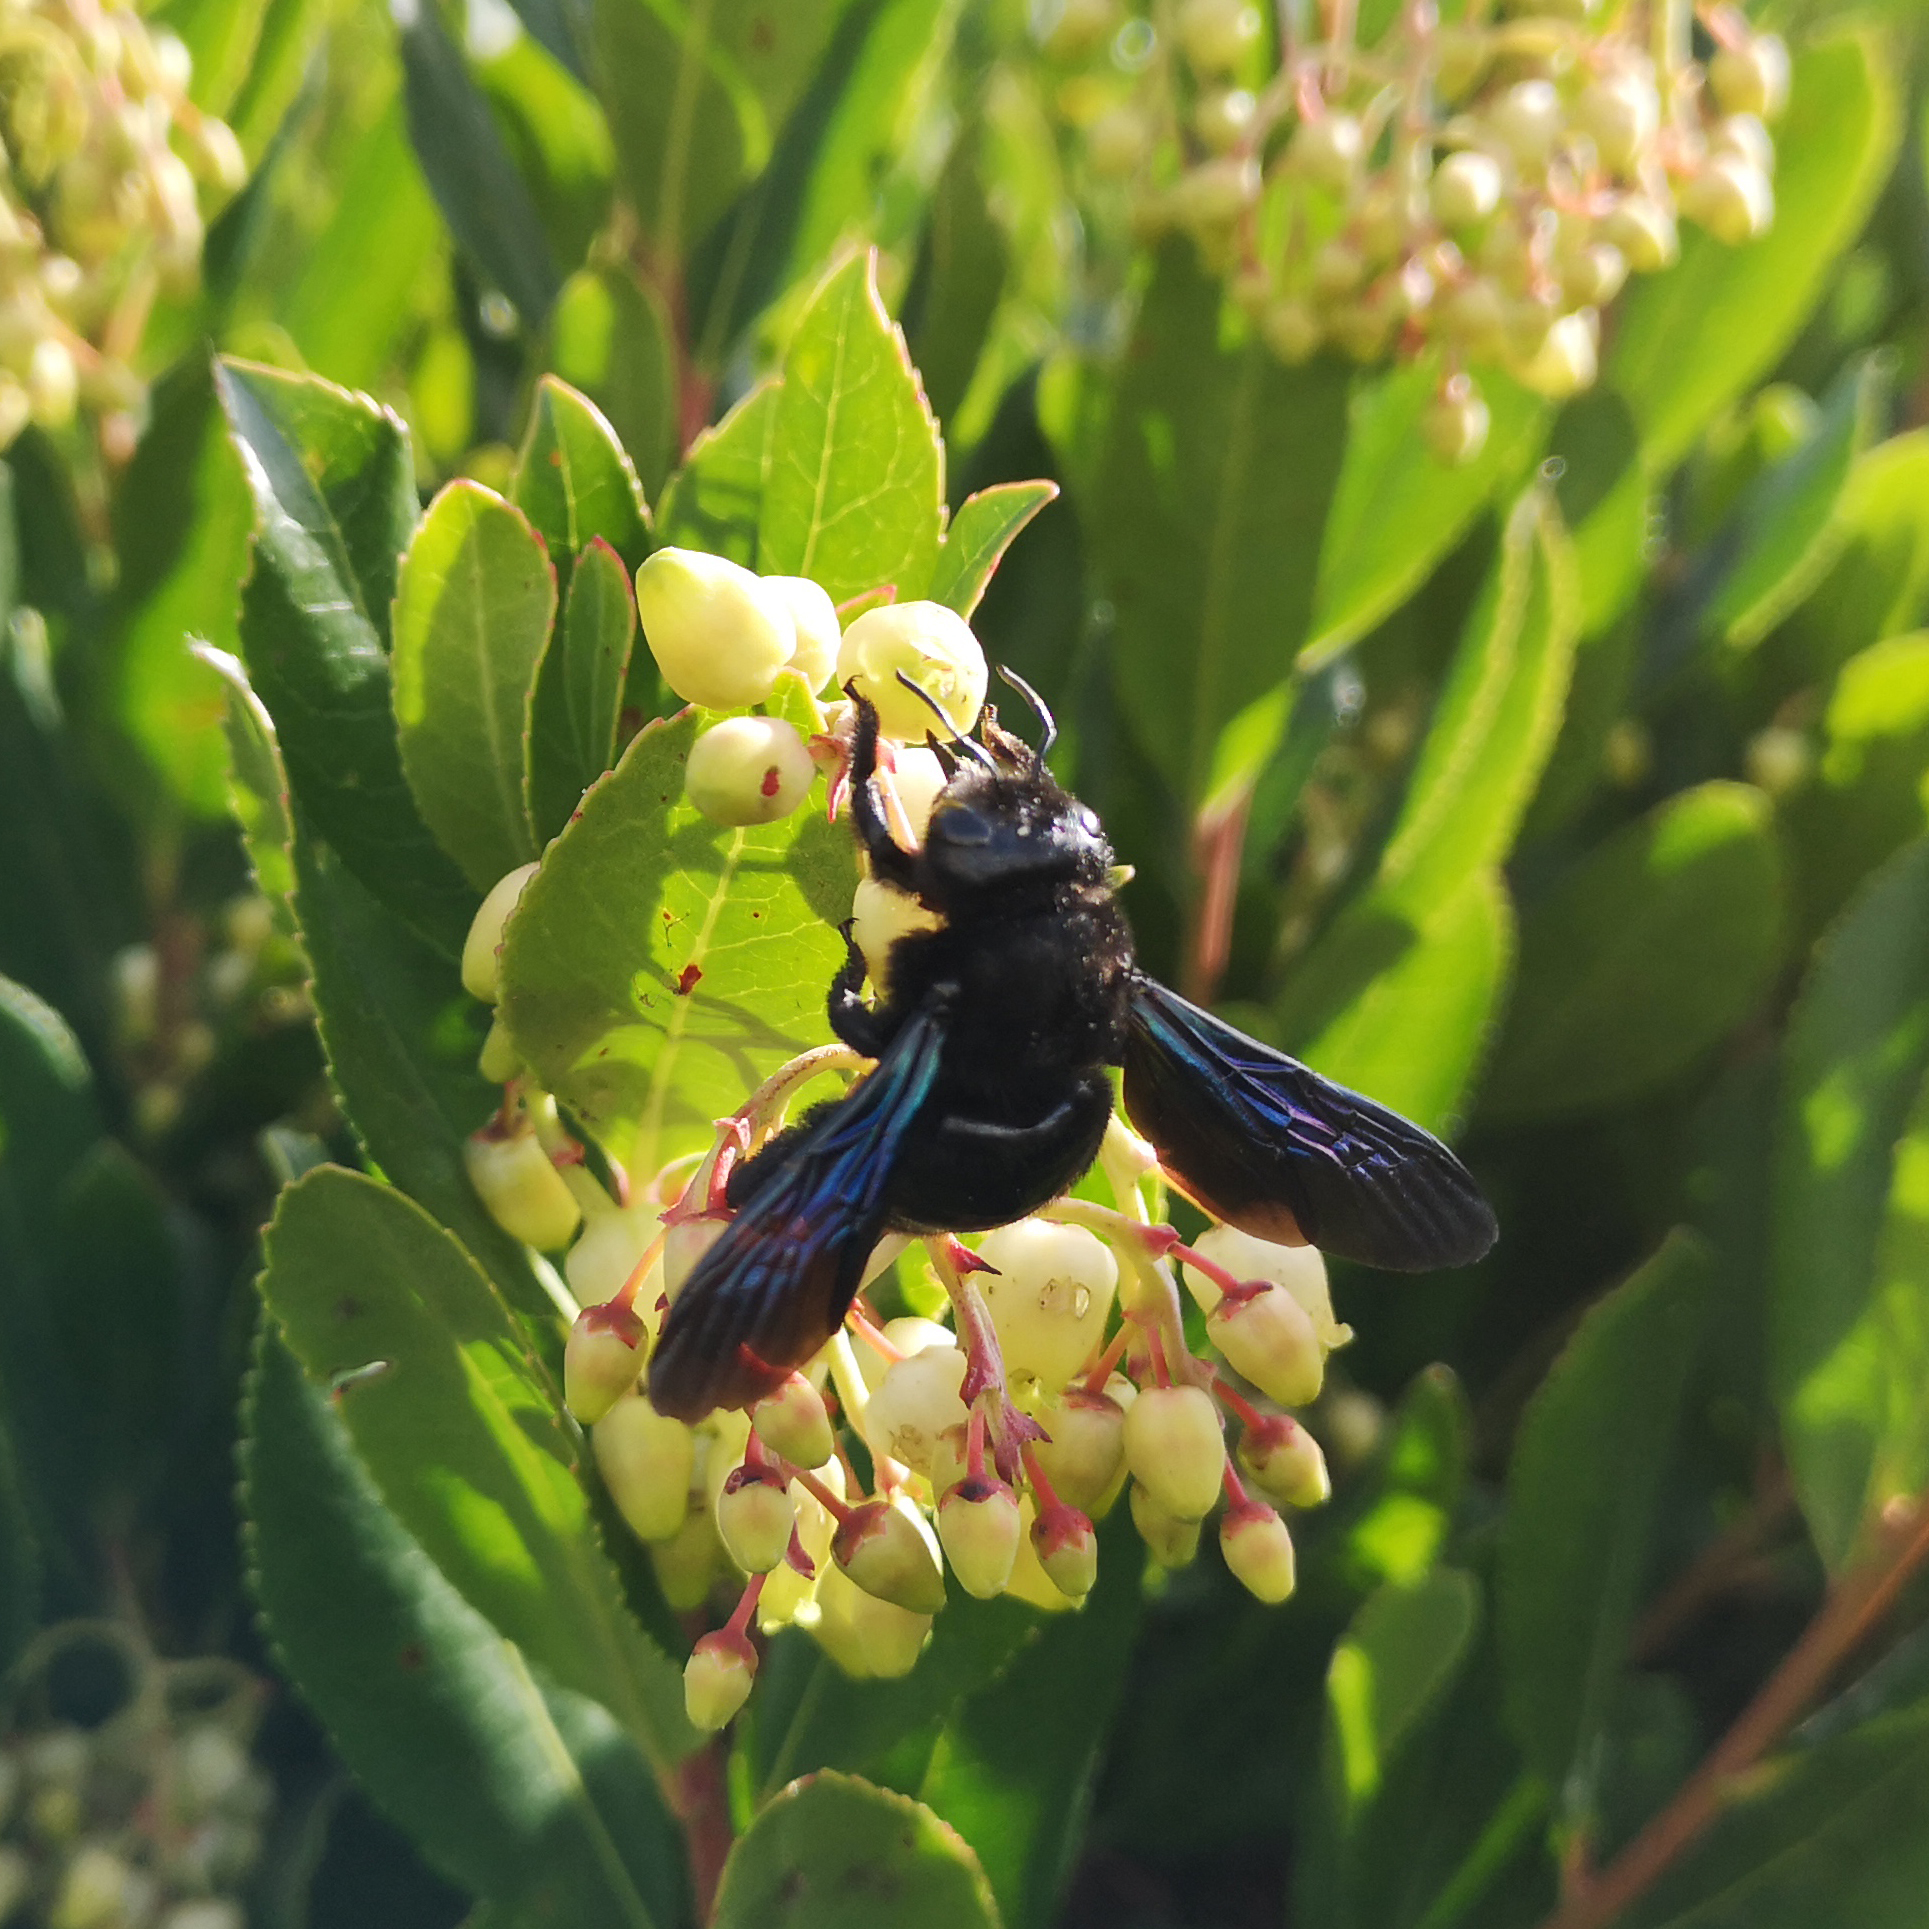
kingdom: Animalia
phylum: Arthropoda
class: Insecta
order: Hymenoptera
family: Apidae
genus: Xylocopa
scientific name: Xylocopa
